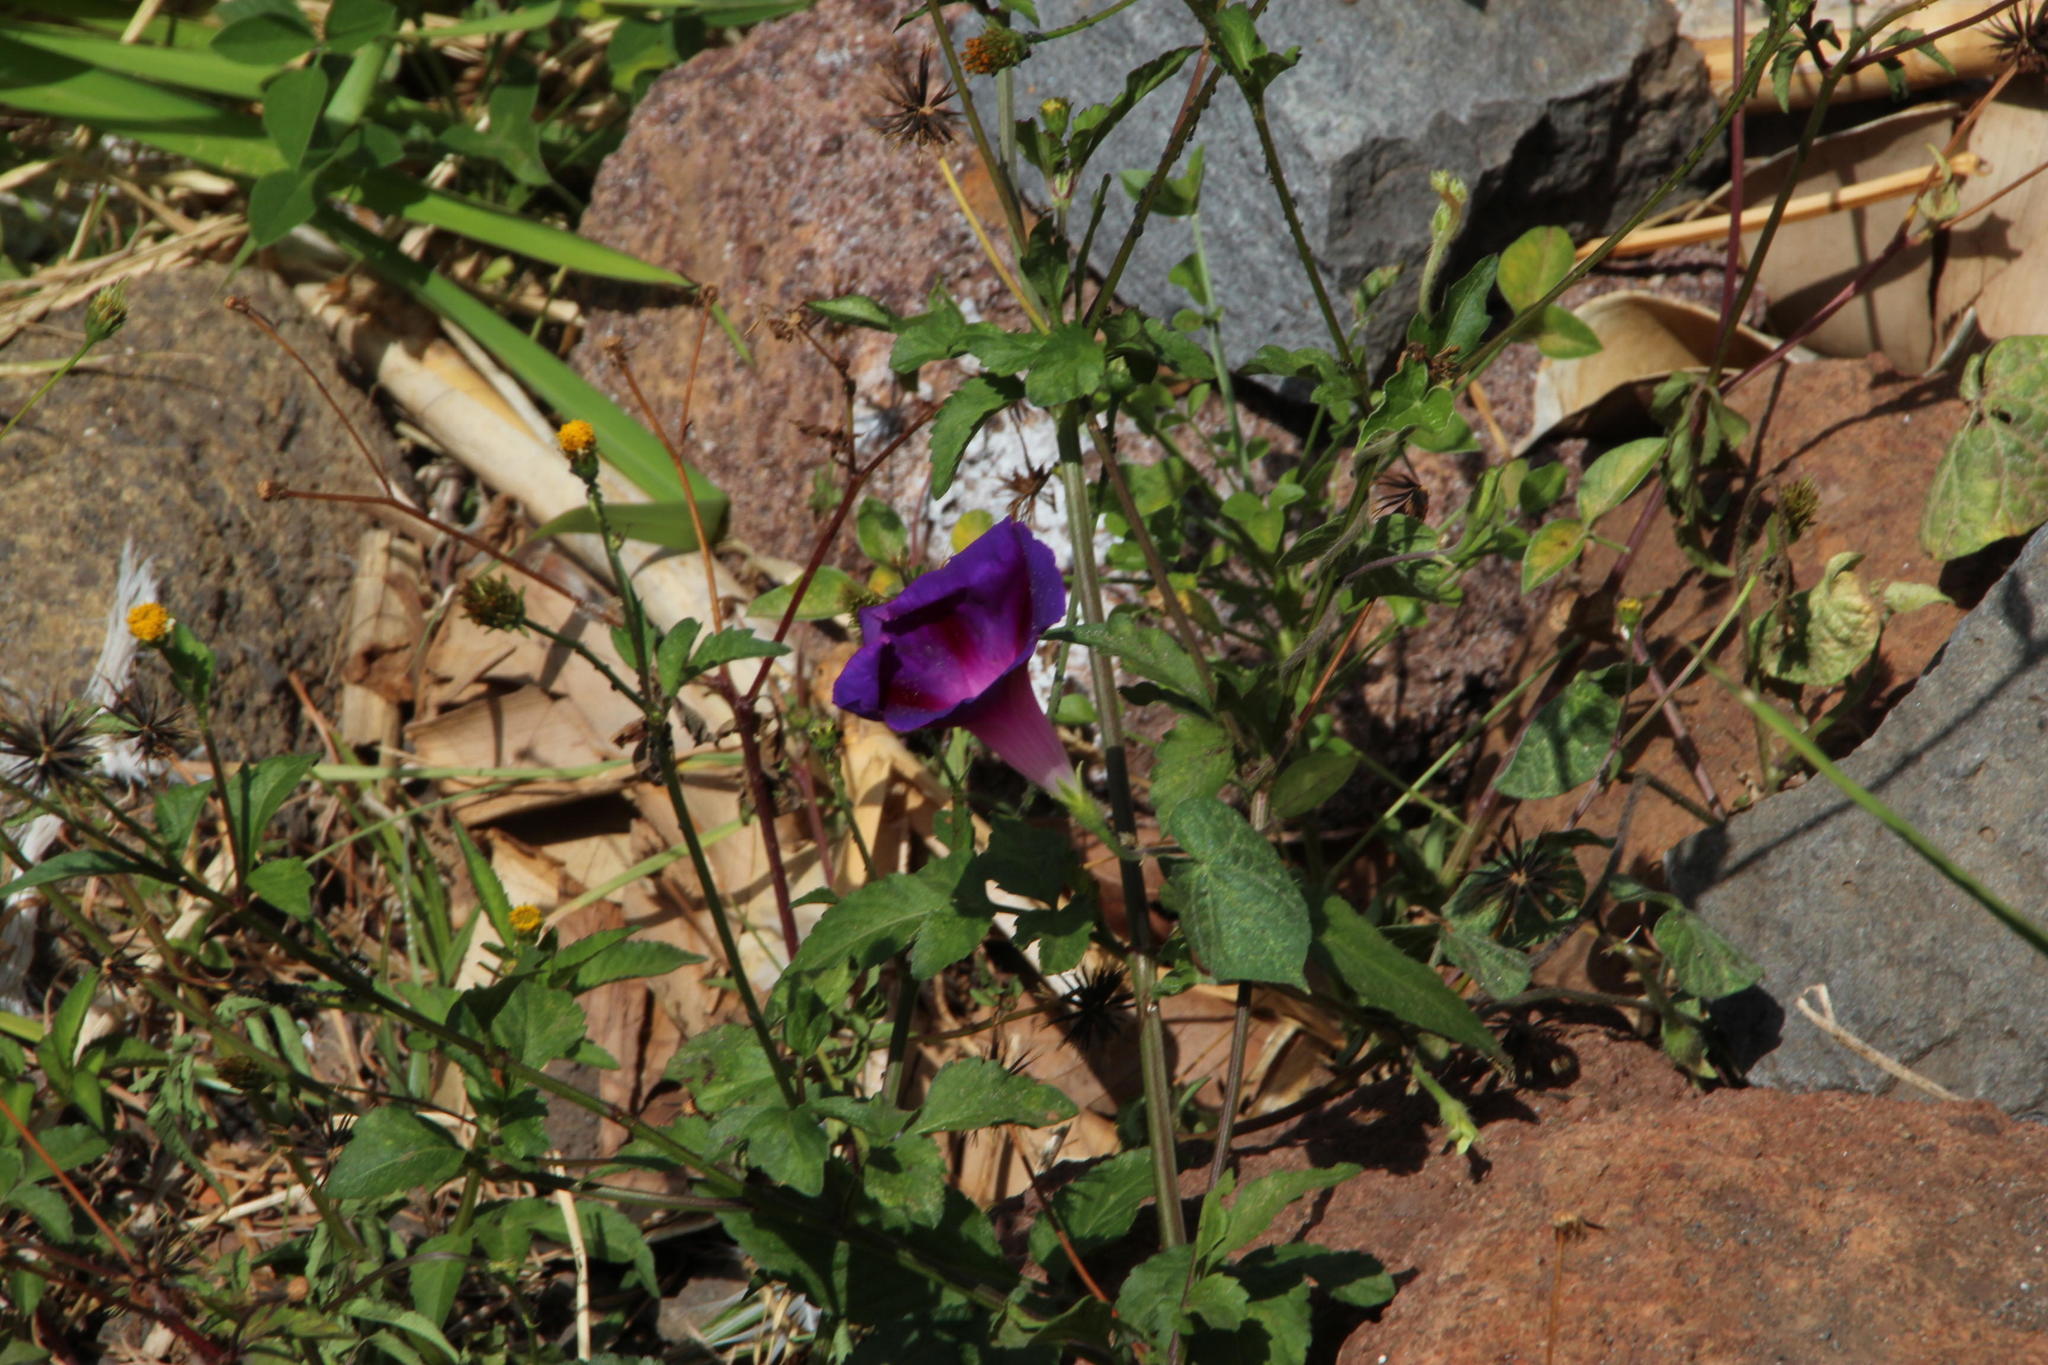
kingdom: Plantae
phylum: Tracheophyta
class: Magnoliopsida
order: Asterales
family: Asteraceae
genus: Bidens
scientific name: Bidens pilosa
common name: Black-jack
